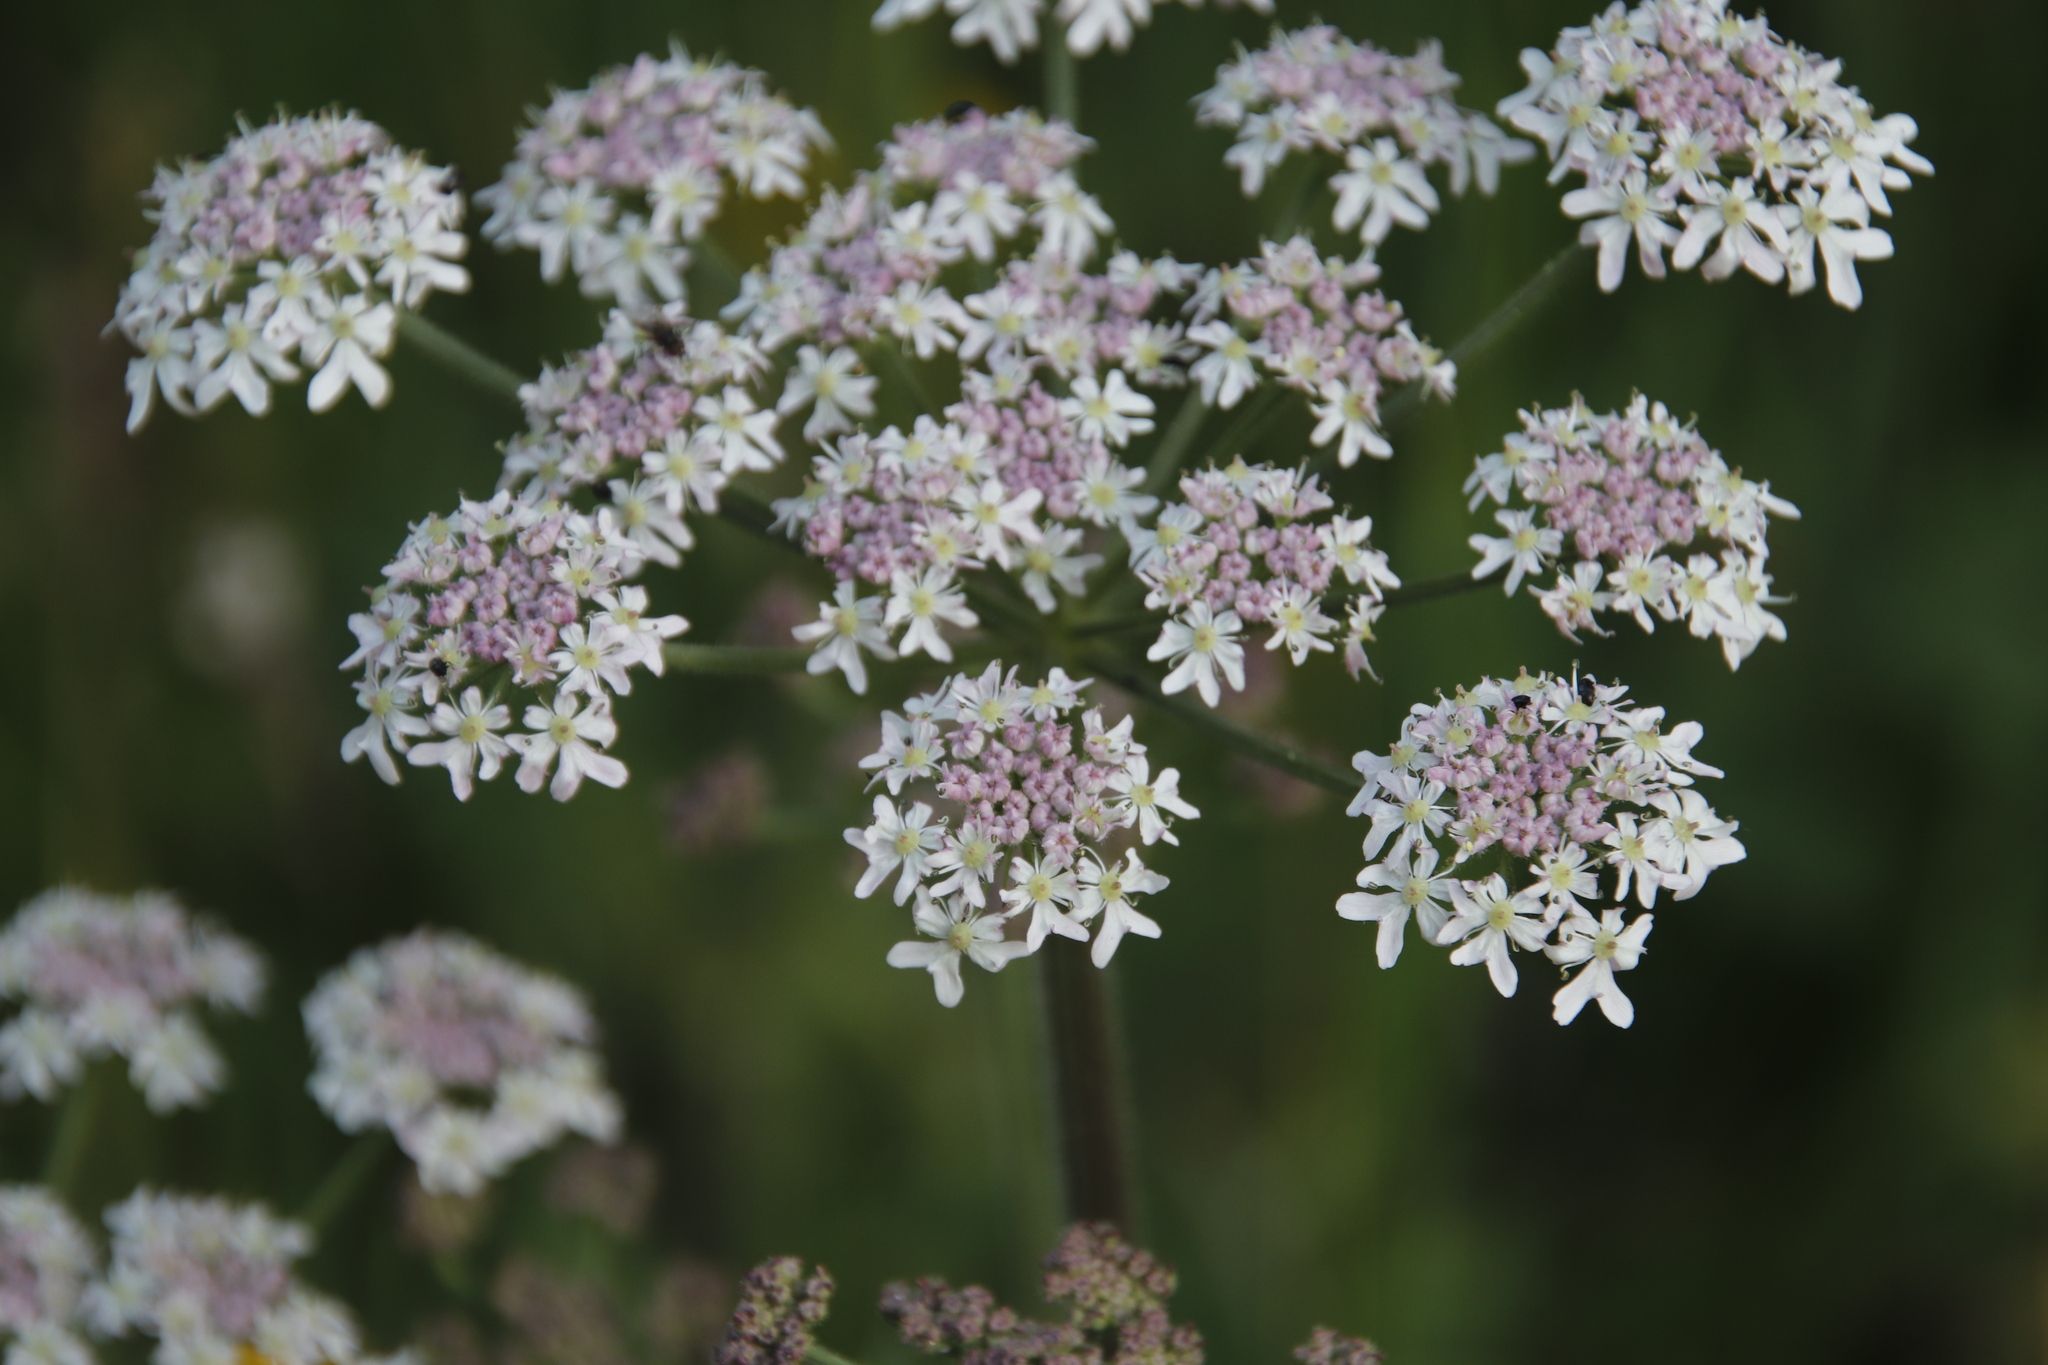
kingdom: Plantae
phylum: Tracheophyta
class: Magnoliopsida
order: Apiales
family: Apiaceae
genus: Heracleum
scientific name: Heracleum sphondylium
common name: Hogweed
